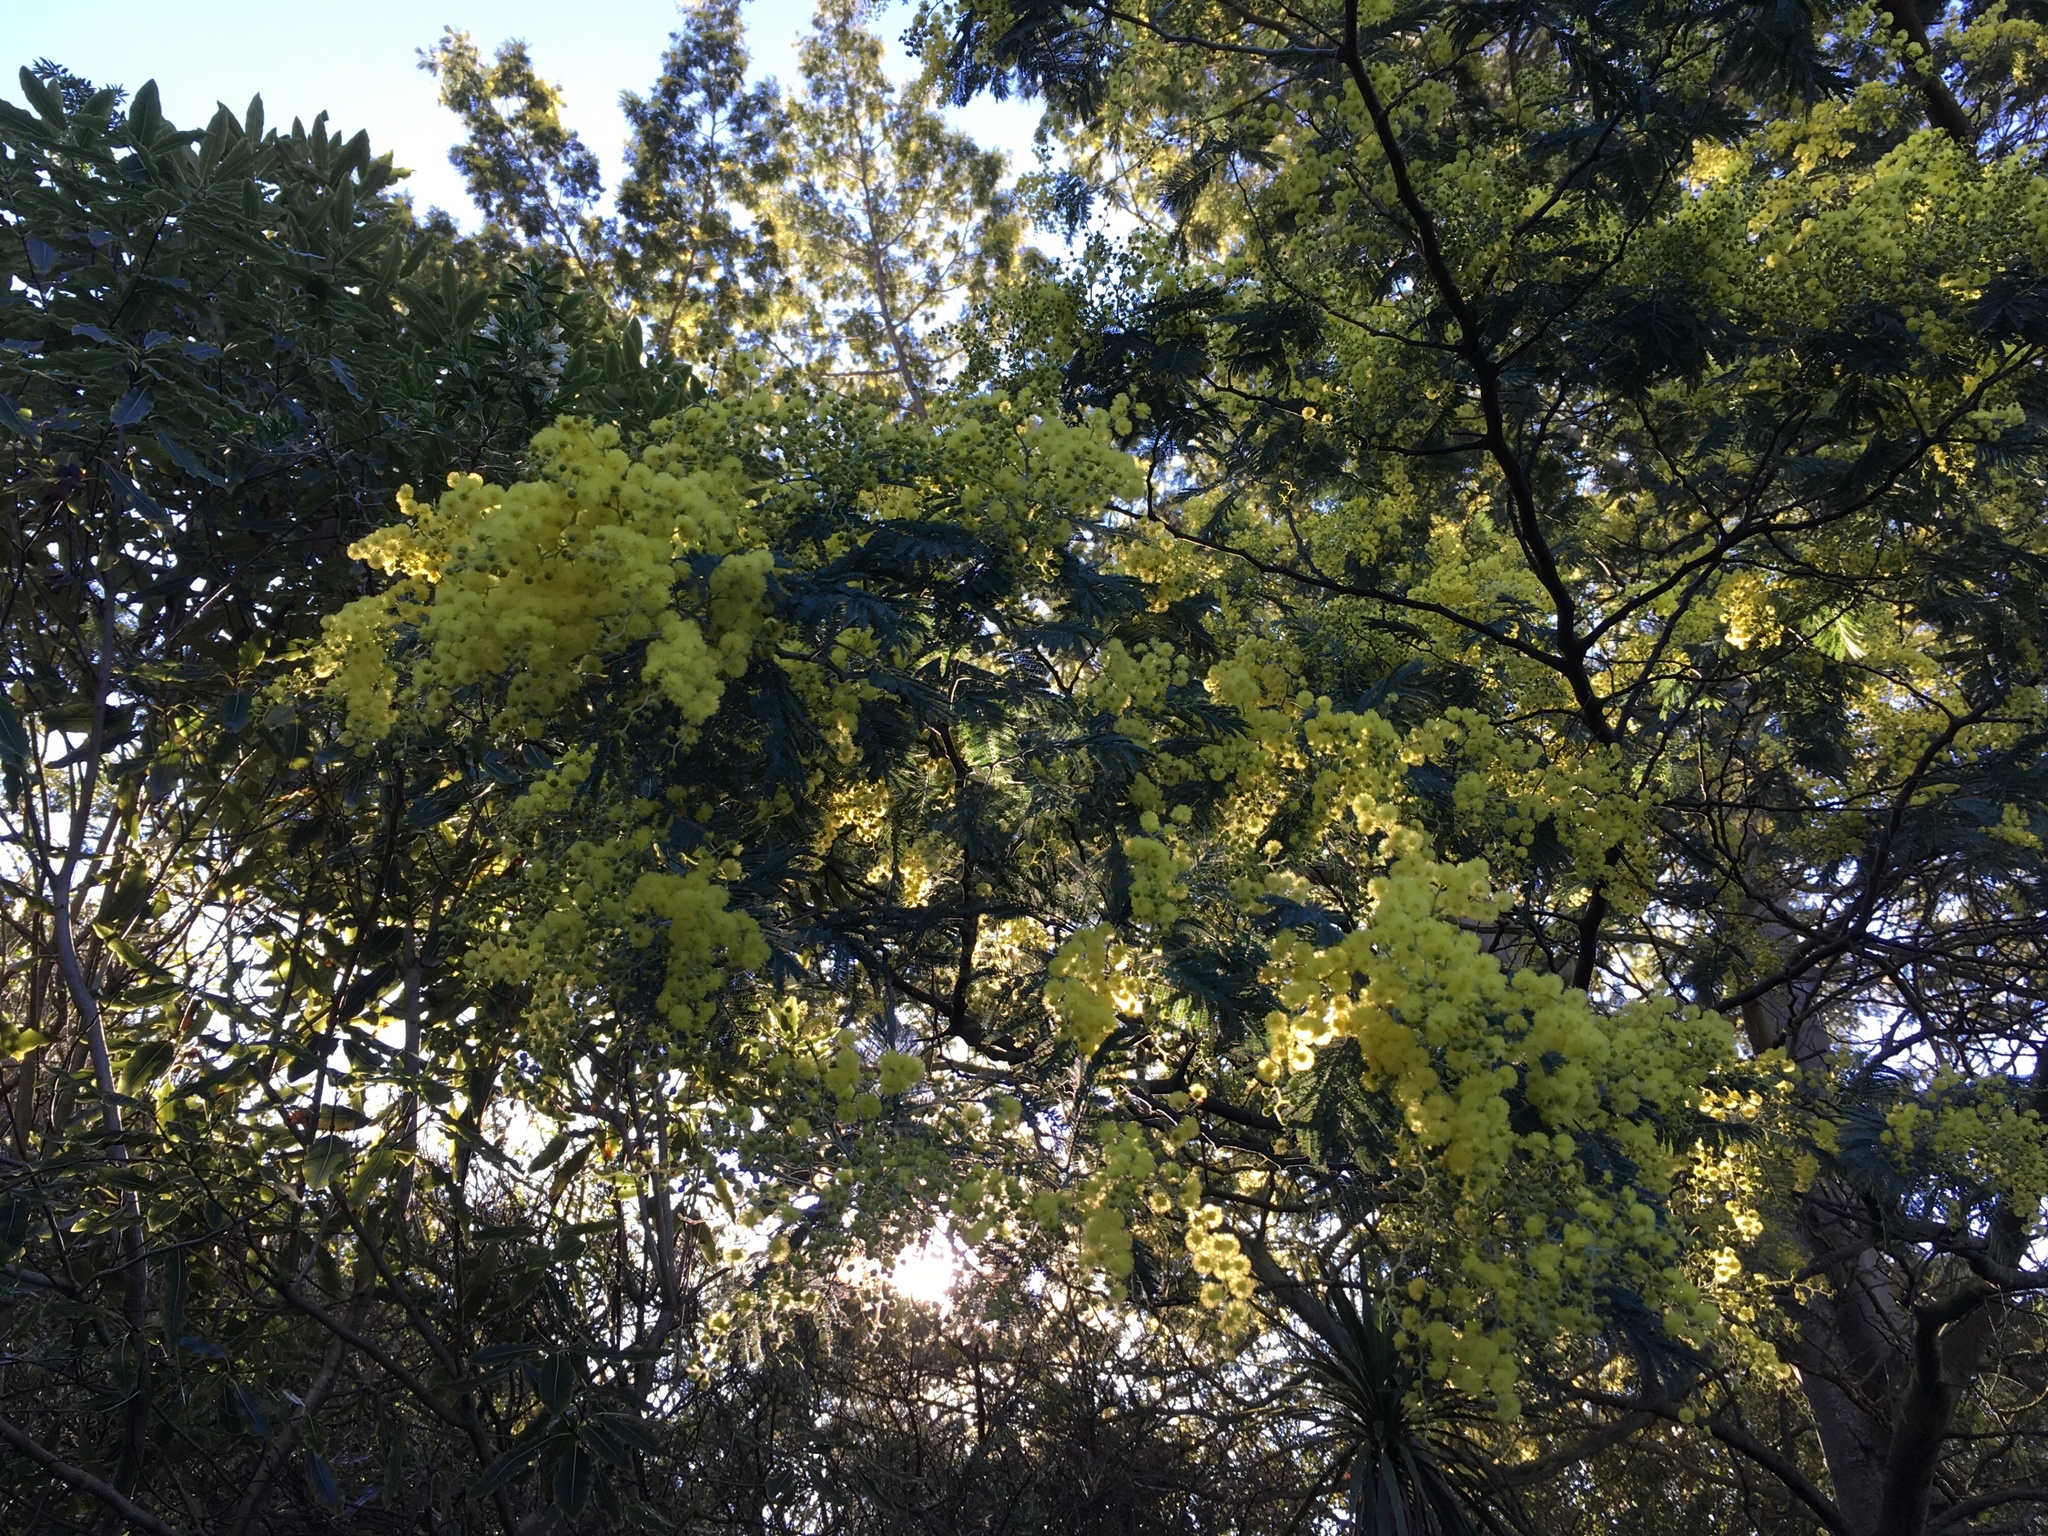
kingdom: Plantae
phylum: Tracheophyta
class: Magnoliopsida
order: Fabales
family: Fabaceae
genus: Acacia
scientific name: Acacia dealbata
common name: Silver wattle
